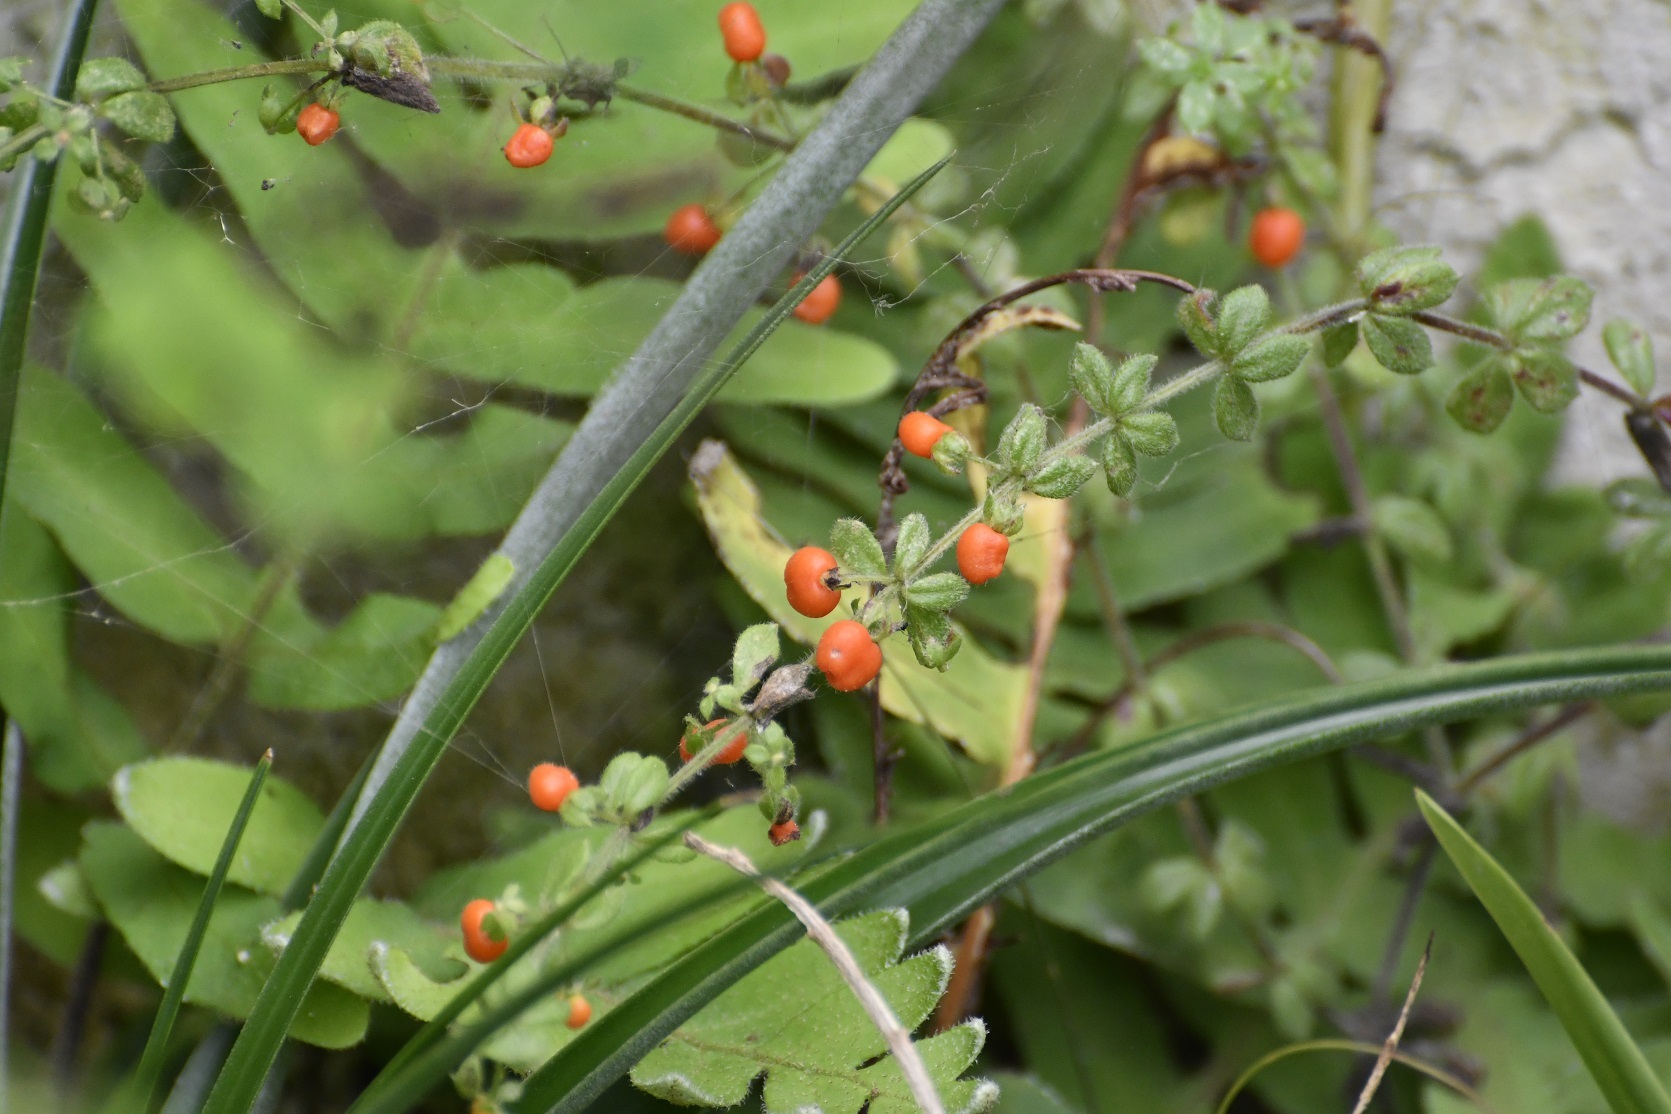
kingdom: Plantae
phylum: Tracheophyta
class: Magnoliopsida
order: Gentianales
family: Rubiaceae
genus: Galium
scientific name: Galium hypocarpium
